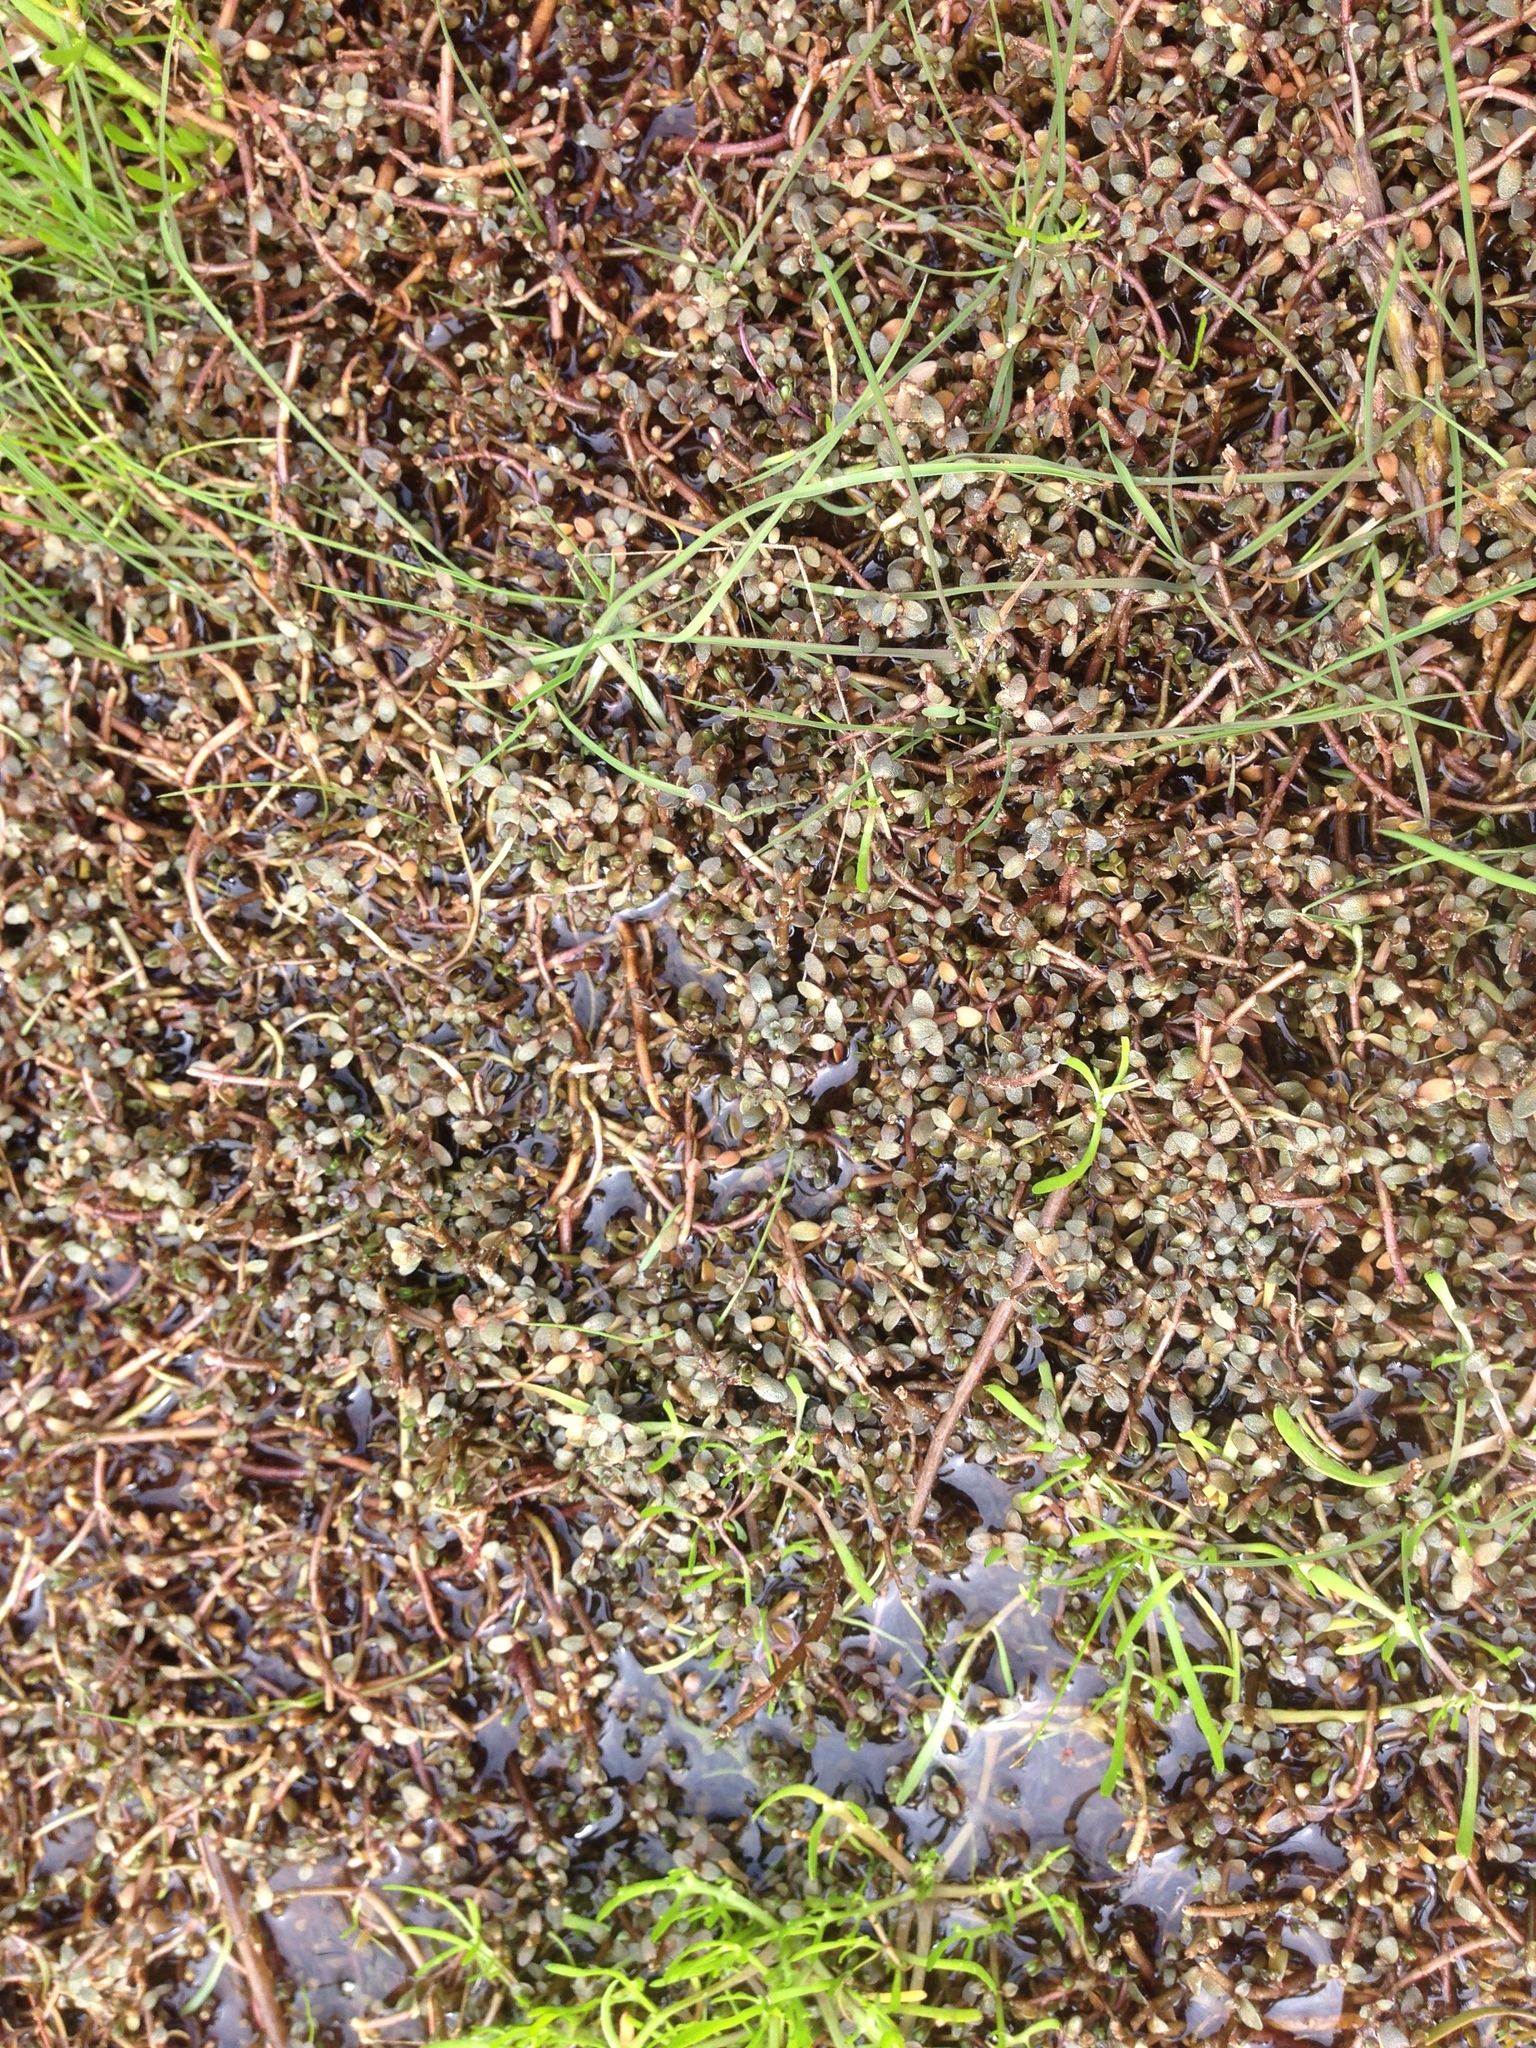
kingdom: Plantae
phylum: Tracheophyta
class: Magnoliopsida
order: Lamiales
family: Phrymaceae
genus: Thyridia
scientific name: Thyridia repens
